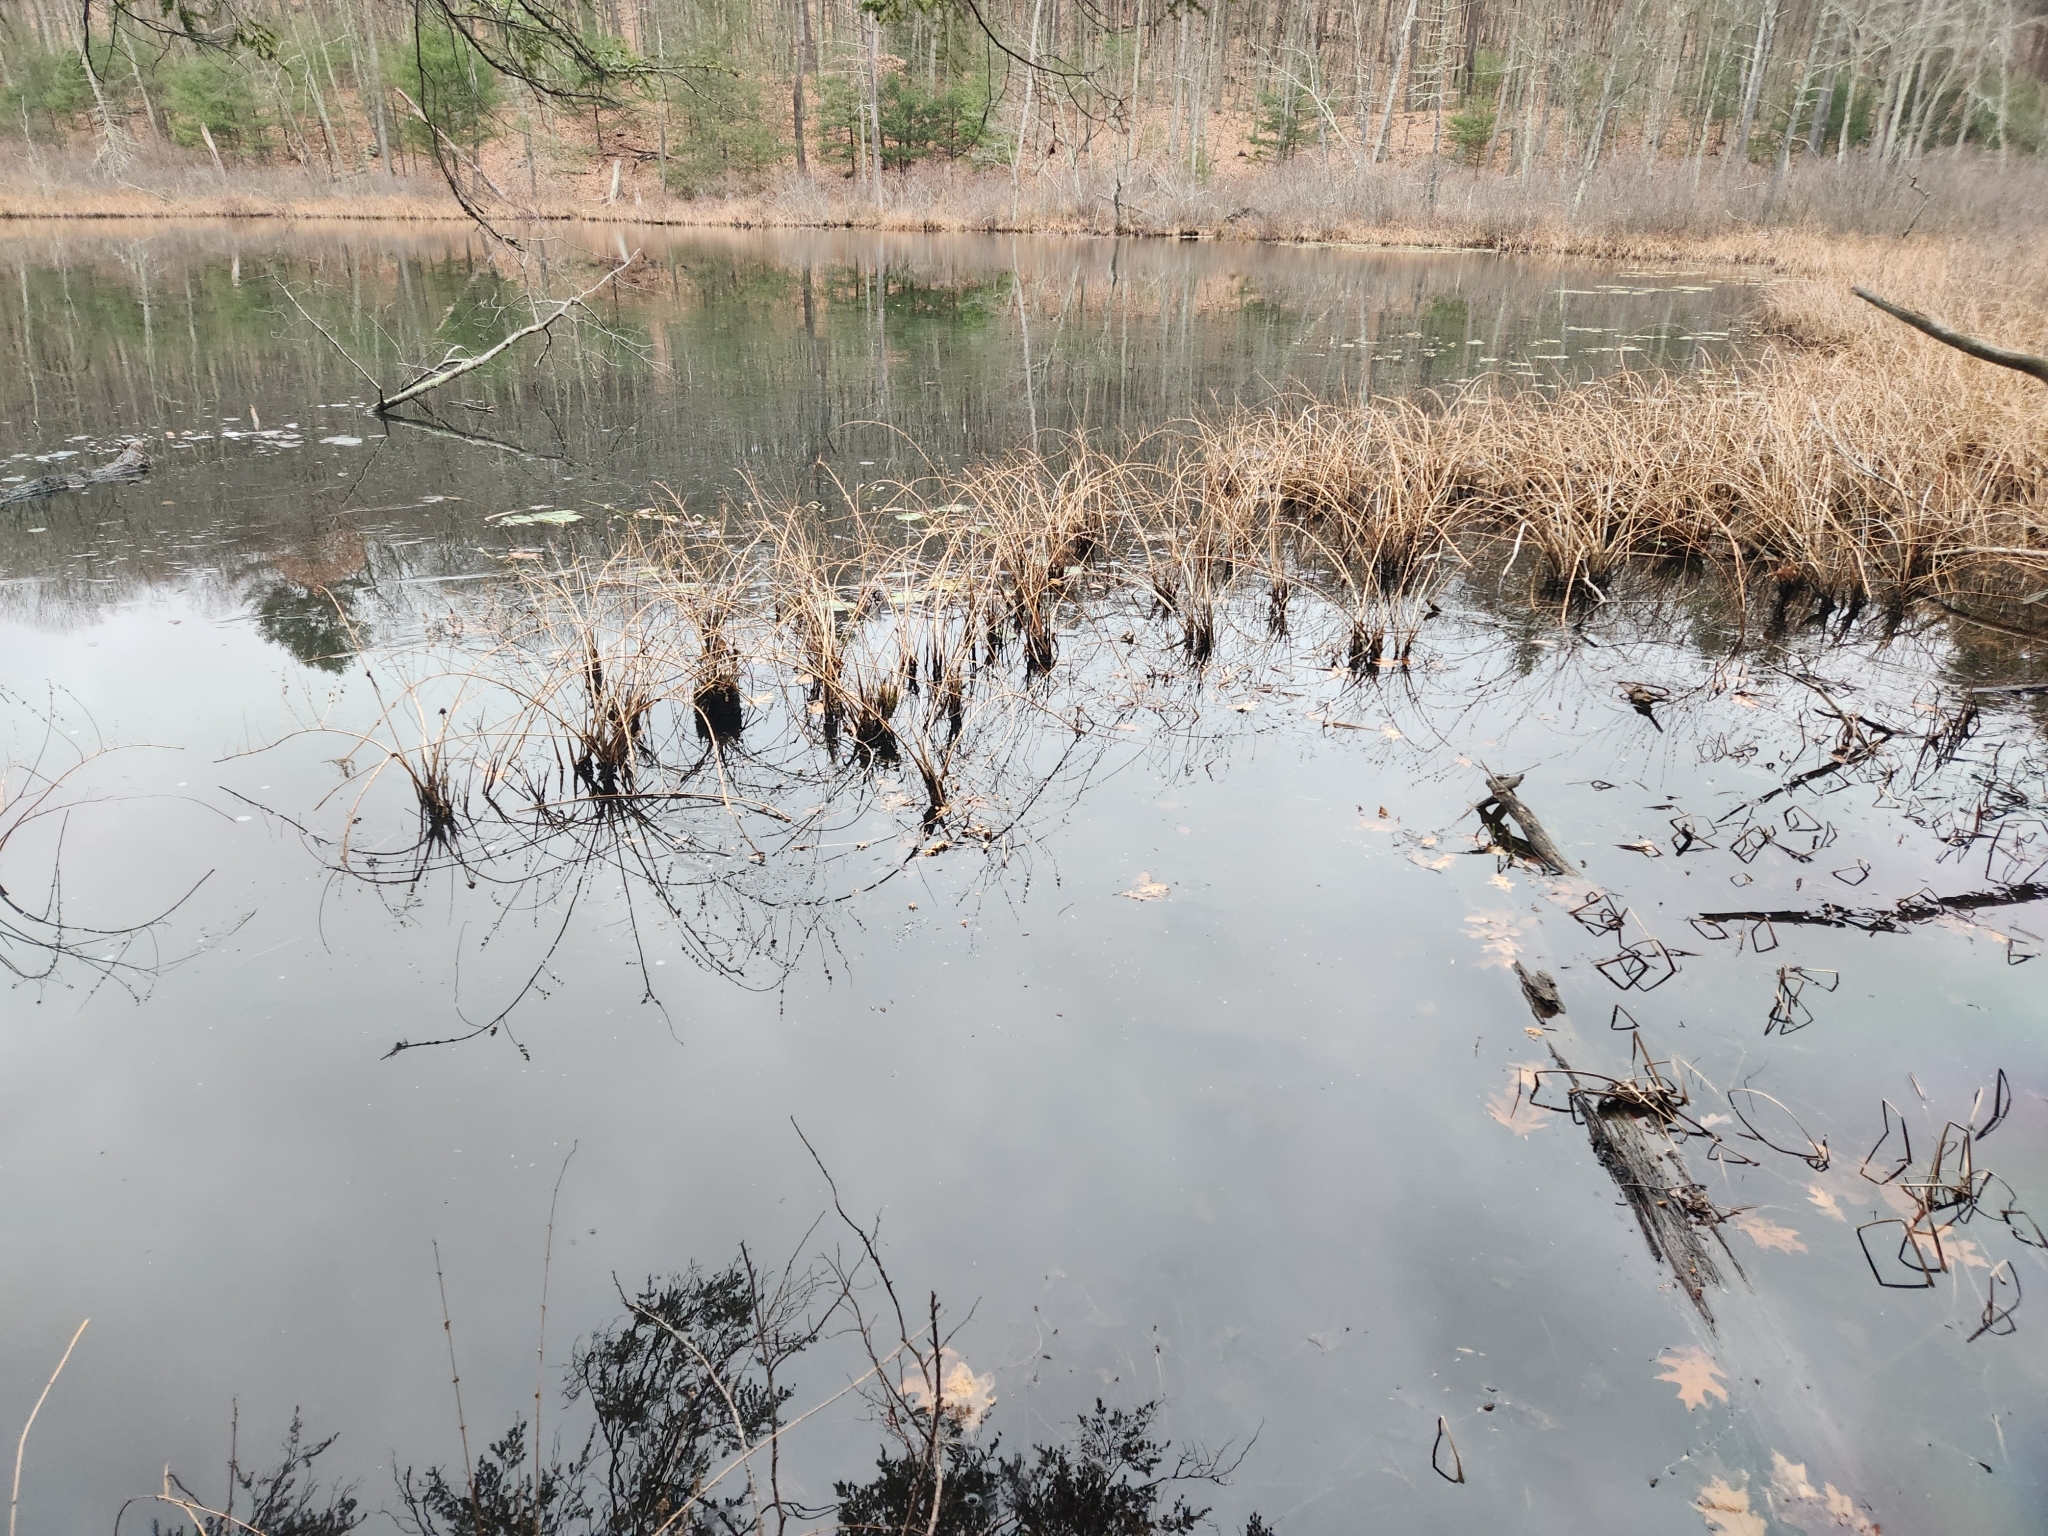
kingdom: Plantae
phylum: Tracheophyta
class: Magnoliopsida
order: Myrtales
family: Lythraceae
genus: Decodon
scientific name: Decodon verticillatus
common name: Hairy swamp loosestrife
